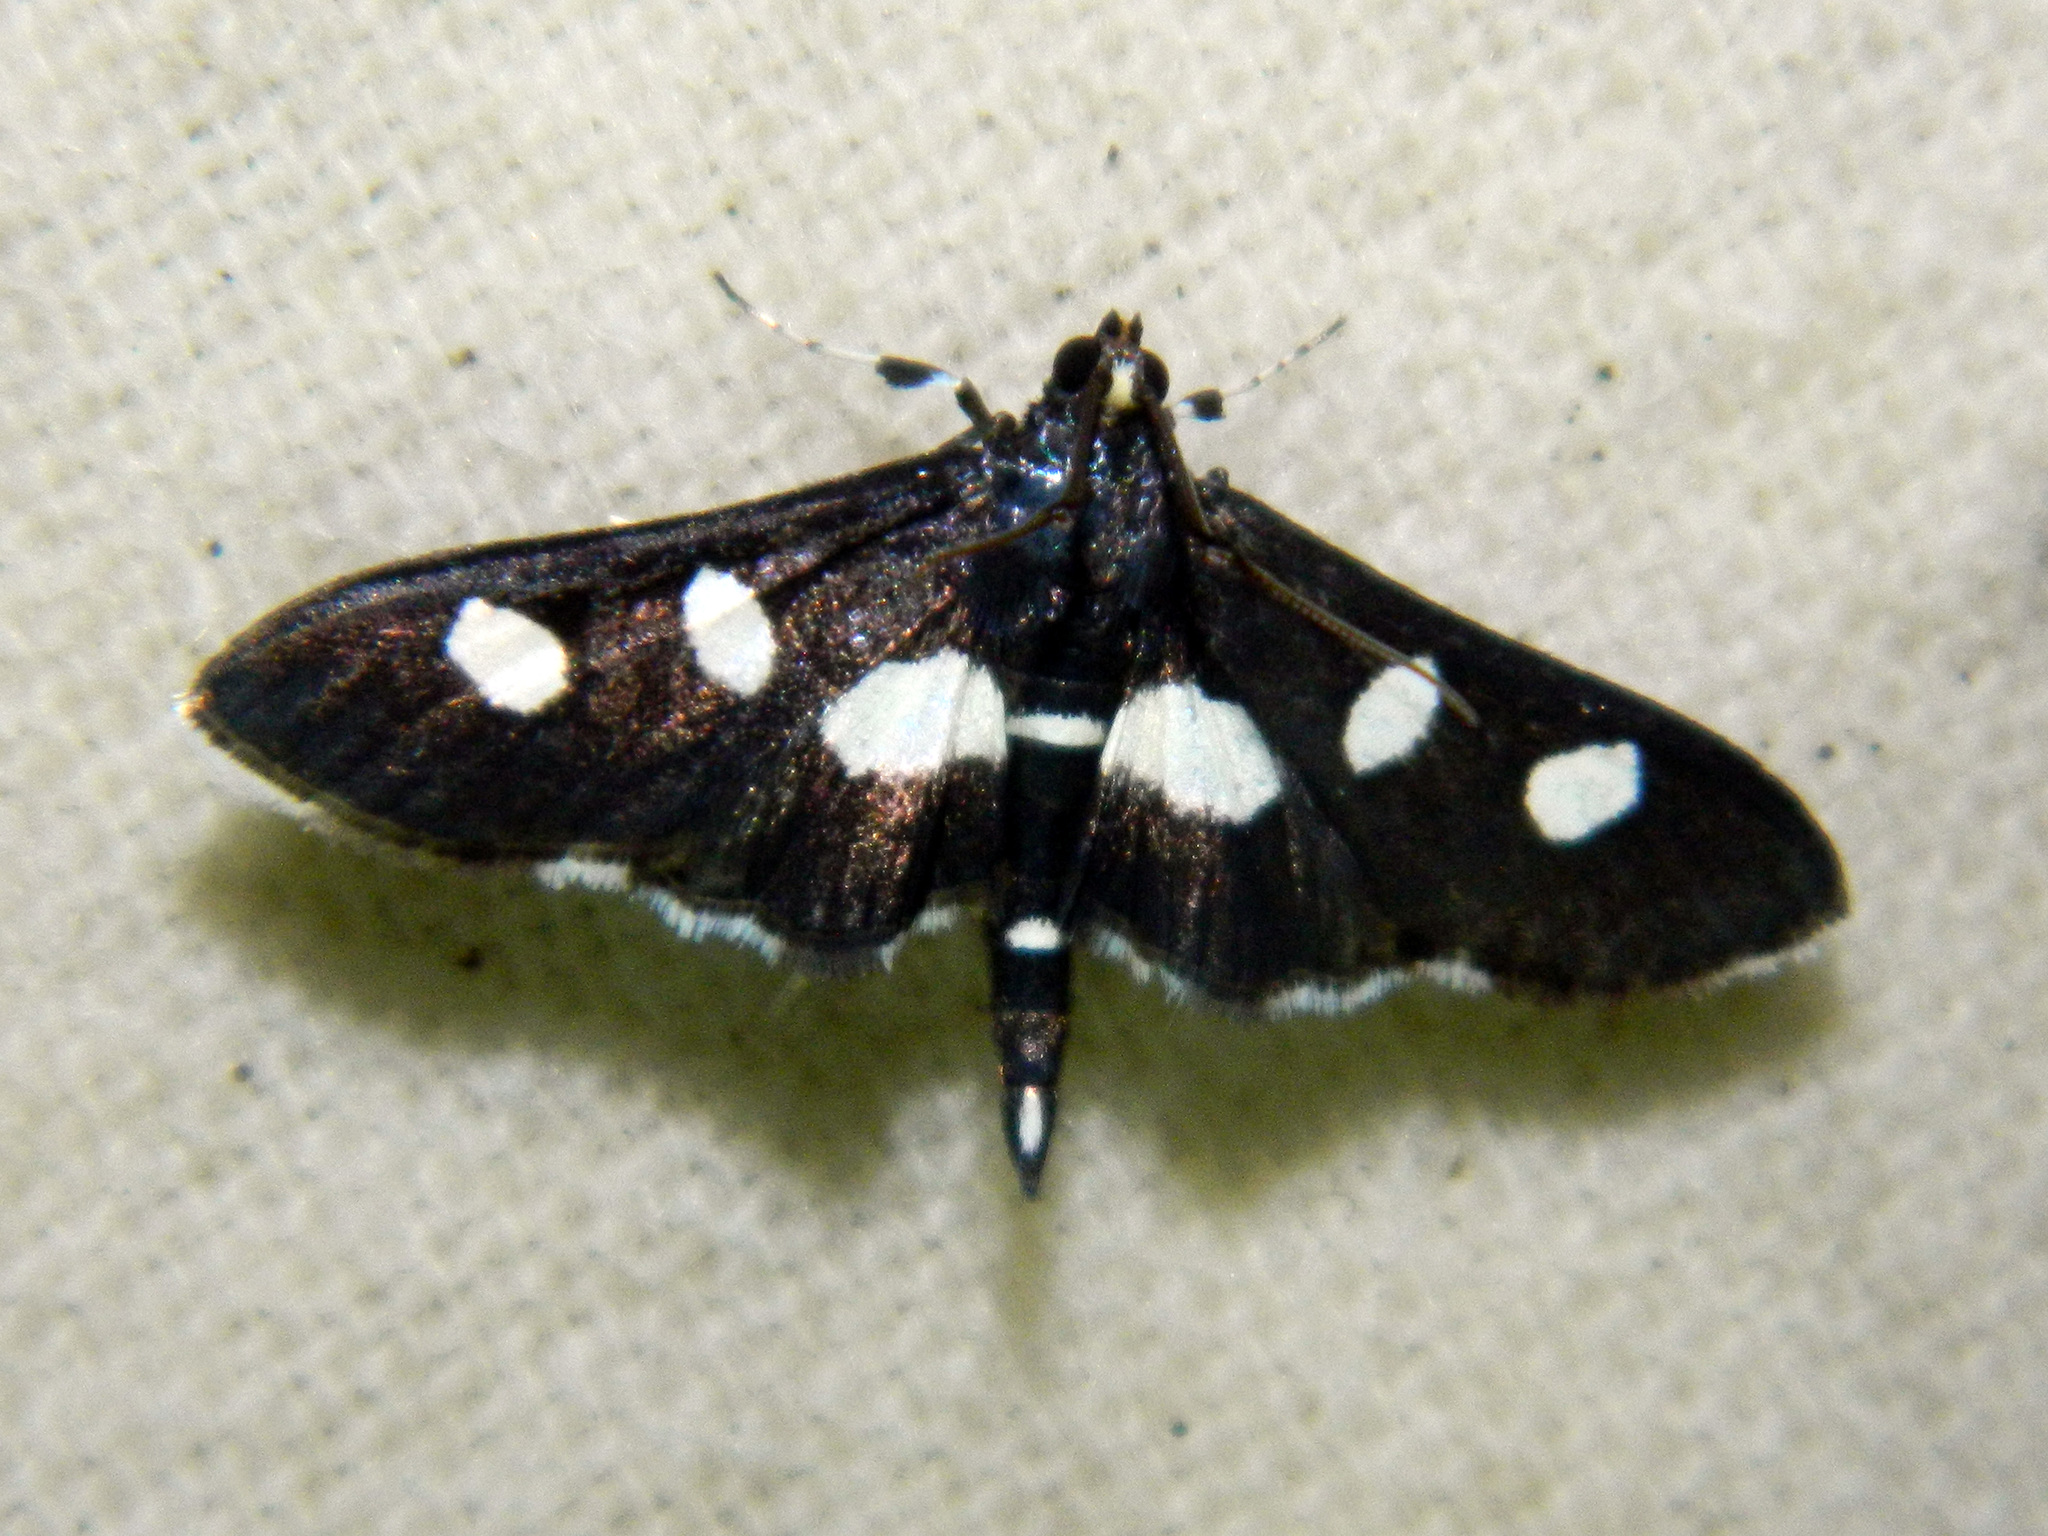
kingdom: Animalia
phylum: Arthropoda
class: Insecta
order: Lepidoptera
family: Crambidae
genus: Desmia
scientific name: Desmia
